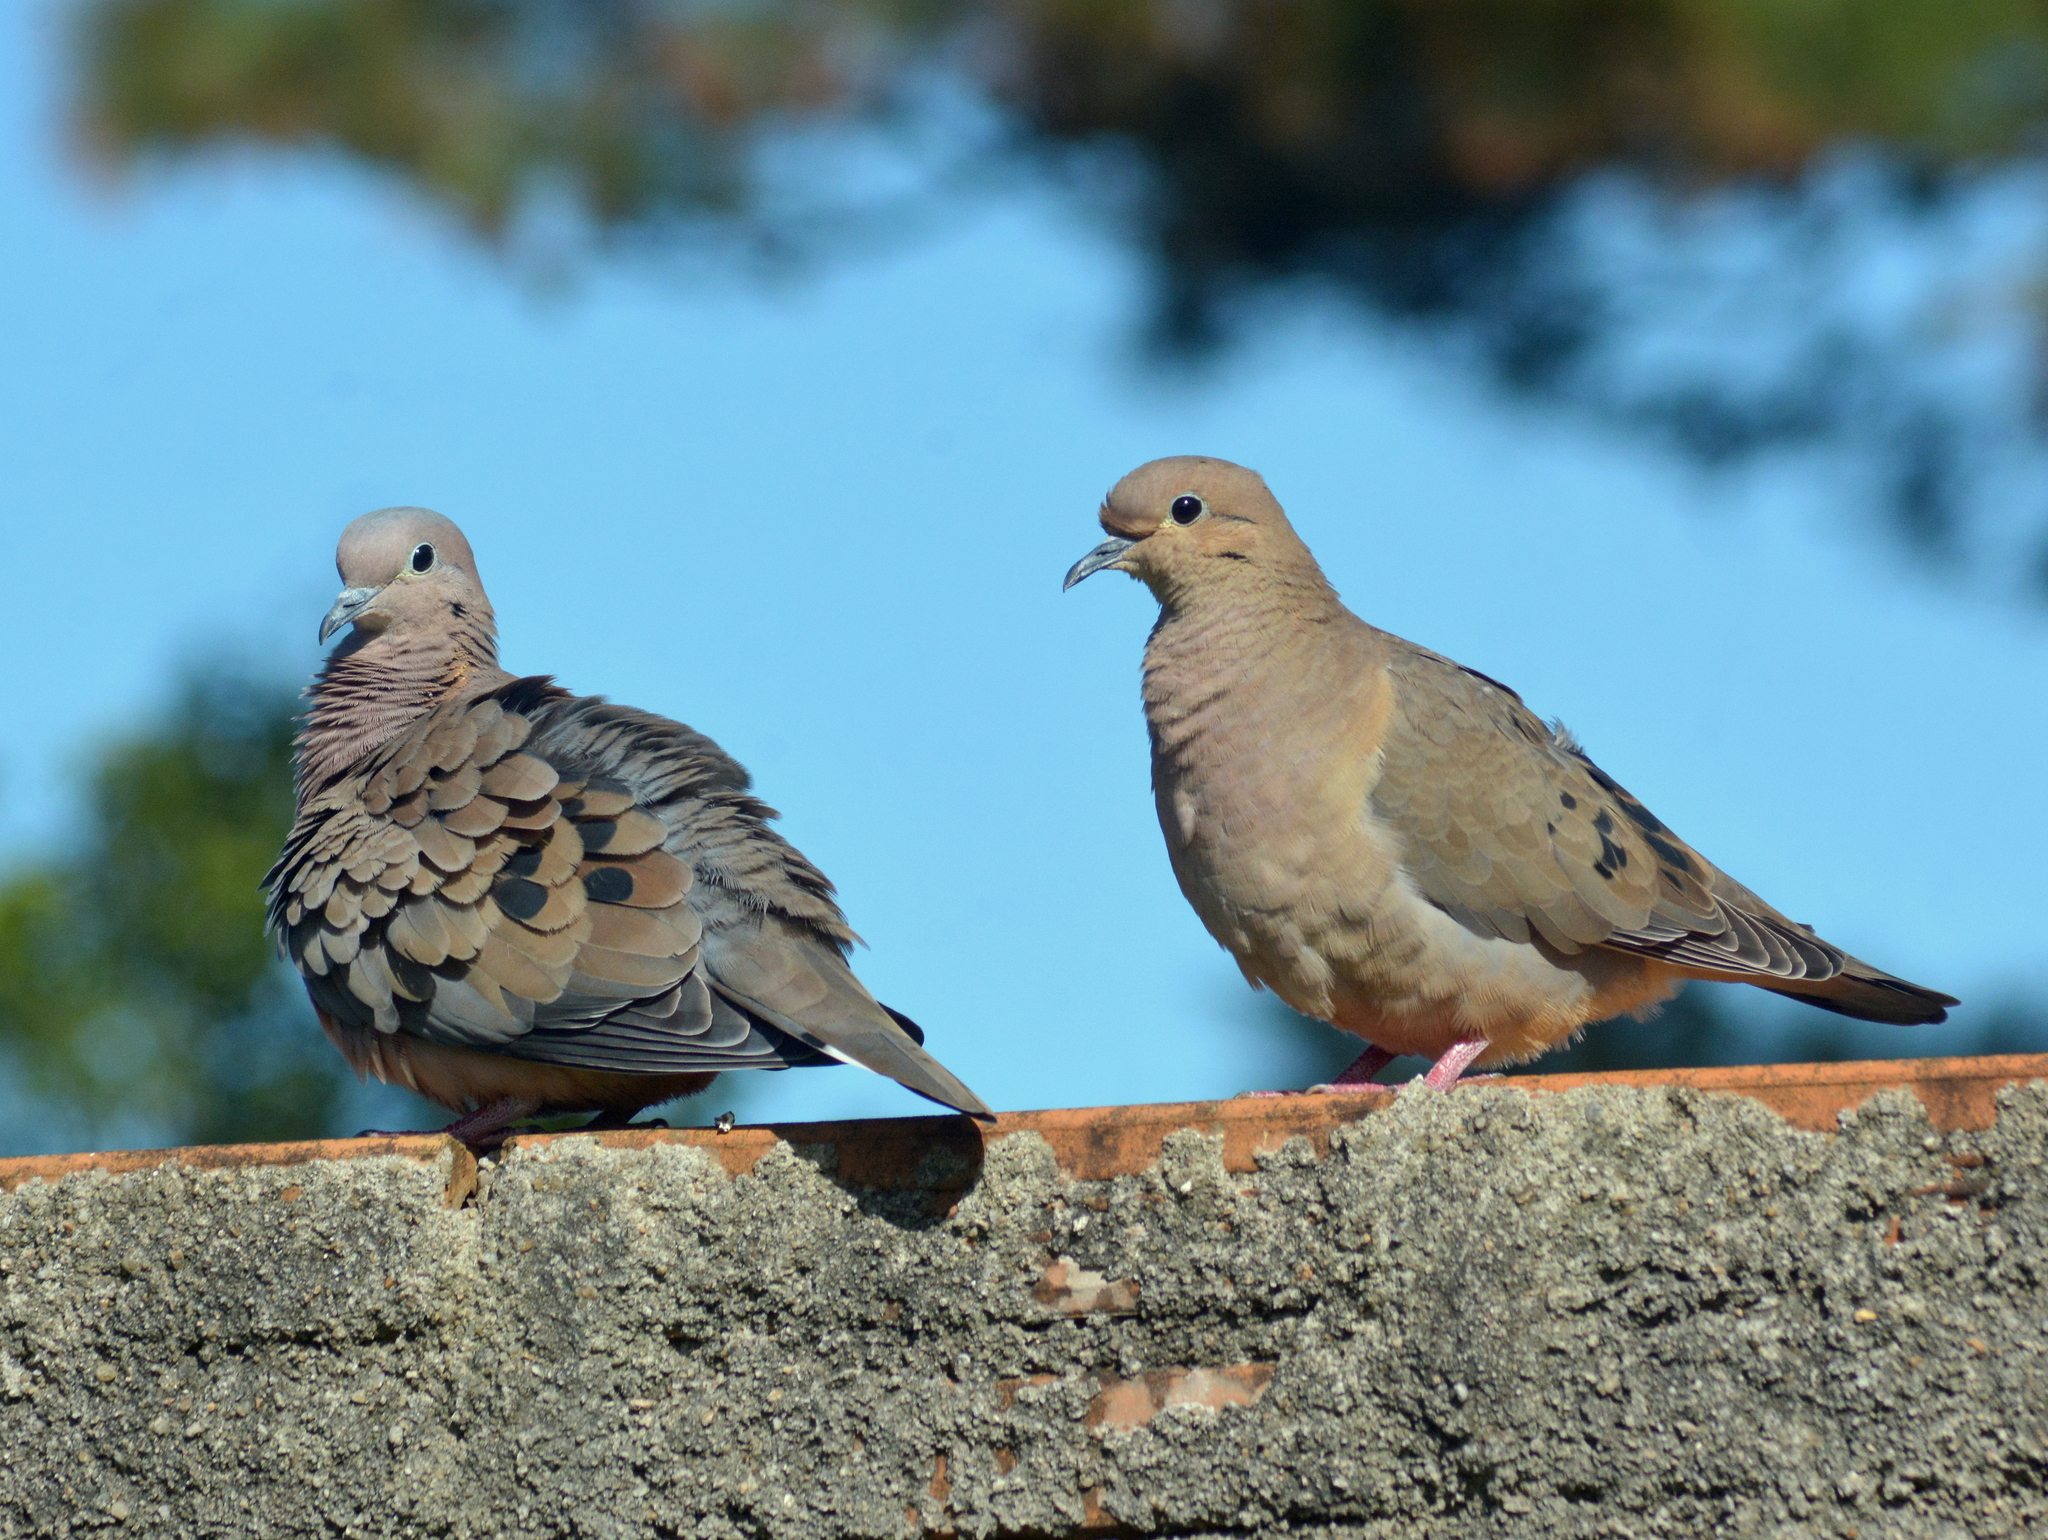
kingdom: Animalia
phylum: Chordata
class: Aves
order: Columbiformes
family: Columbidae
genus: Zenaida
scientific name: Zenaida auriculata
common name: Eared dove
